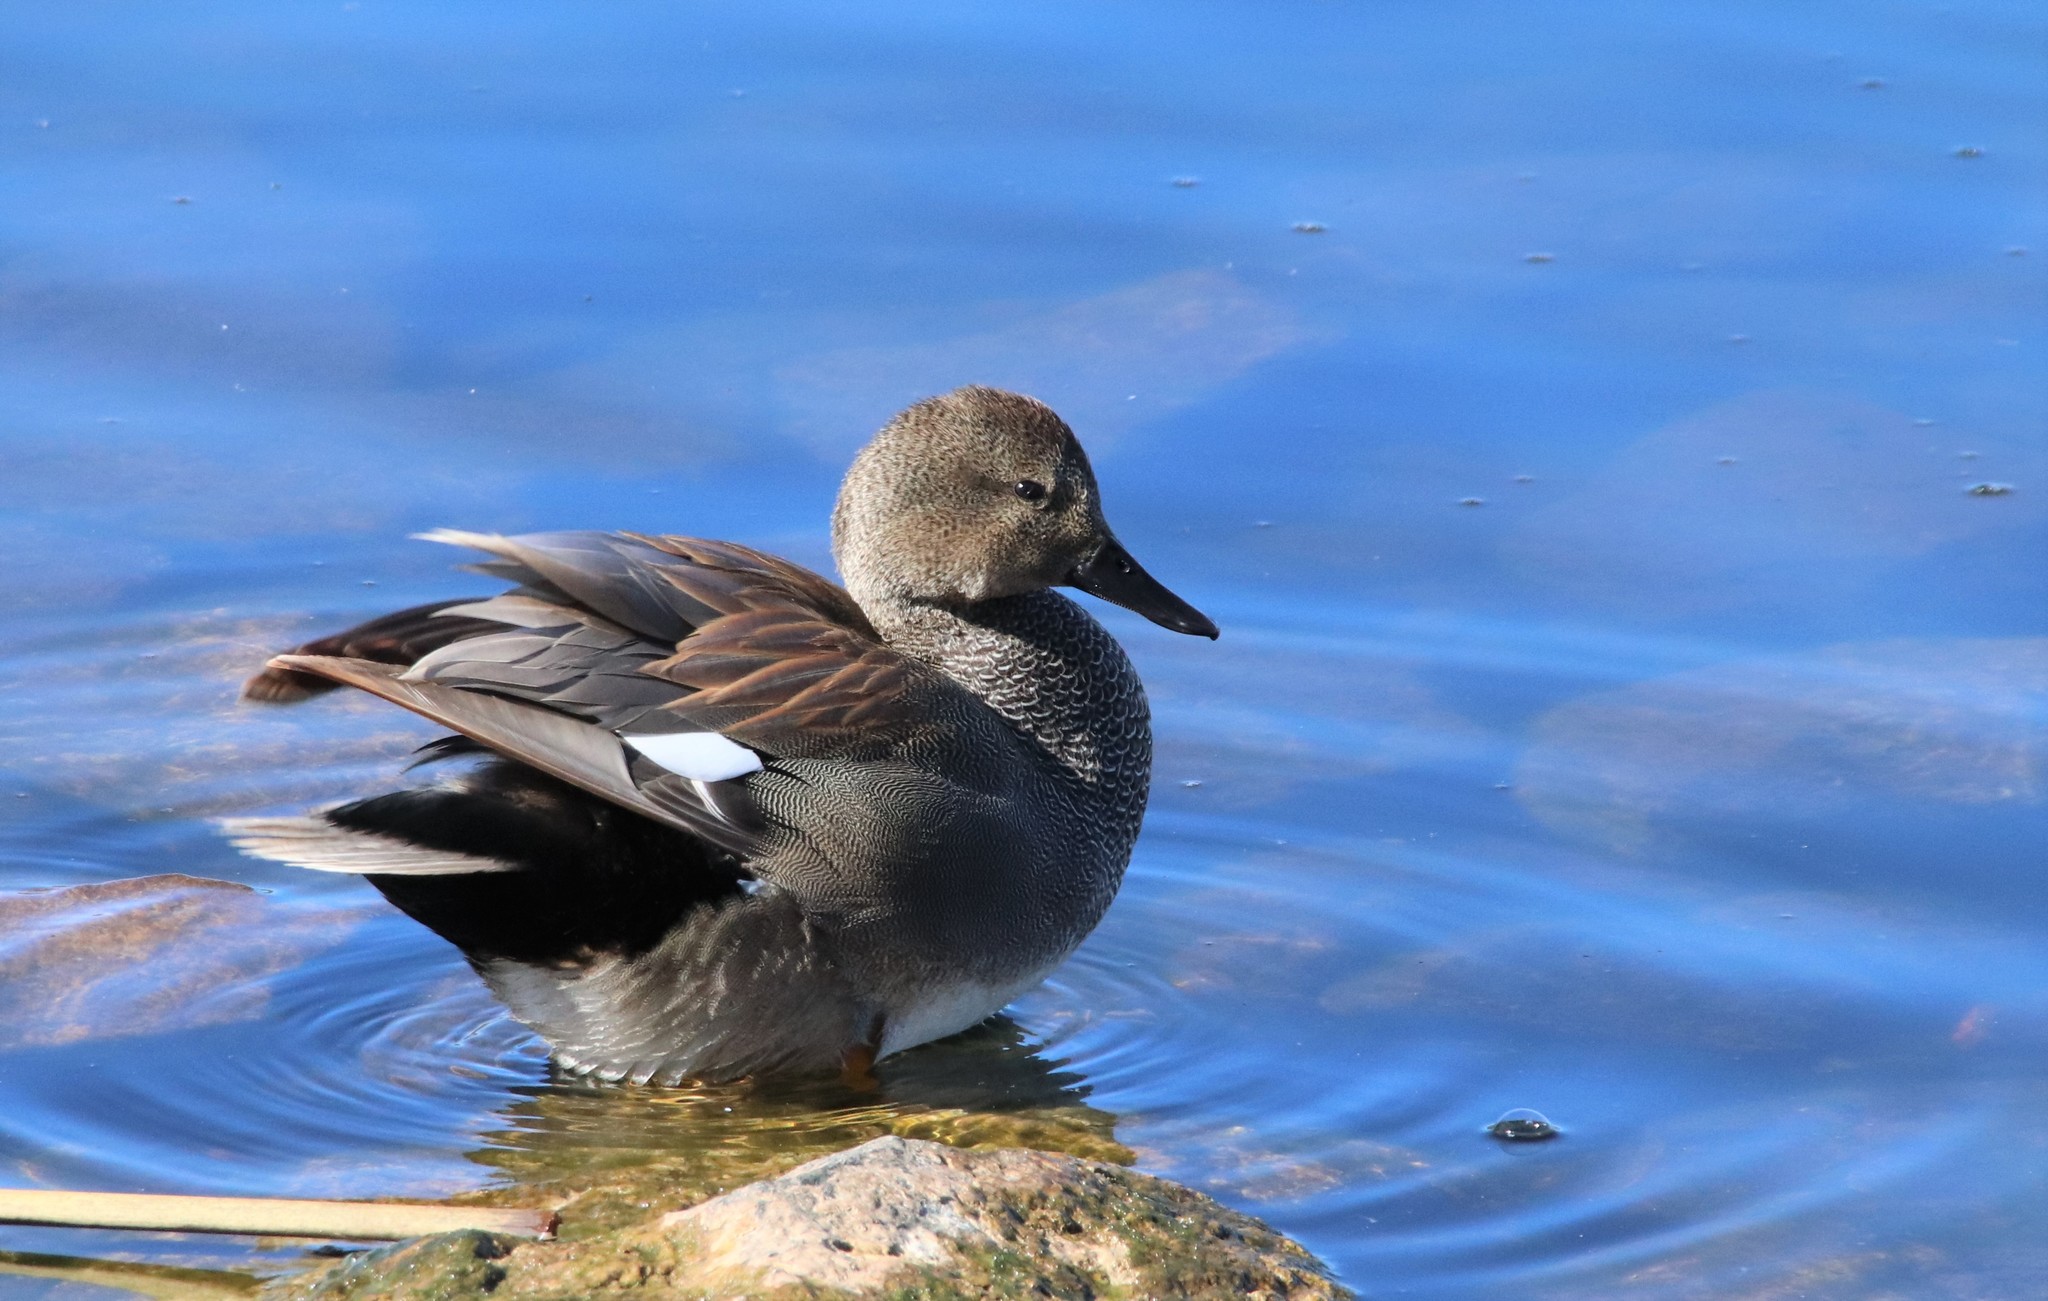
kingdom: Animalia
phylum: Chordata
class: Aves
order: Anseriformes
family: Anatidae
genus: Mareca
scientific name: Mareca strepera
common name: Gadwall
